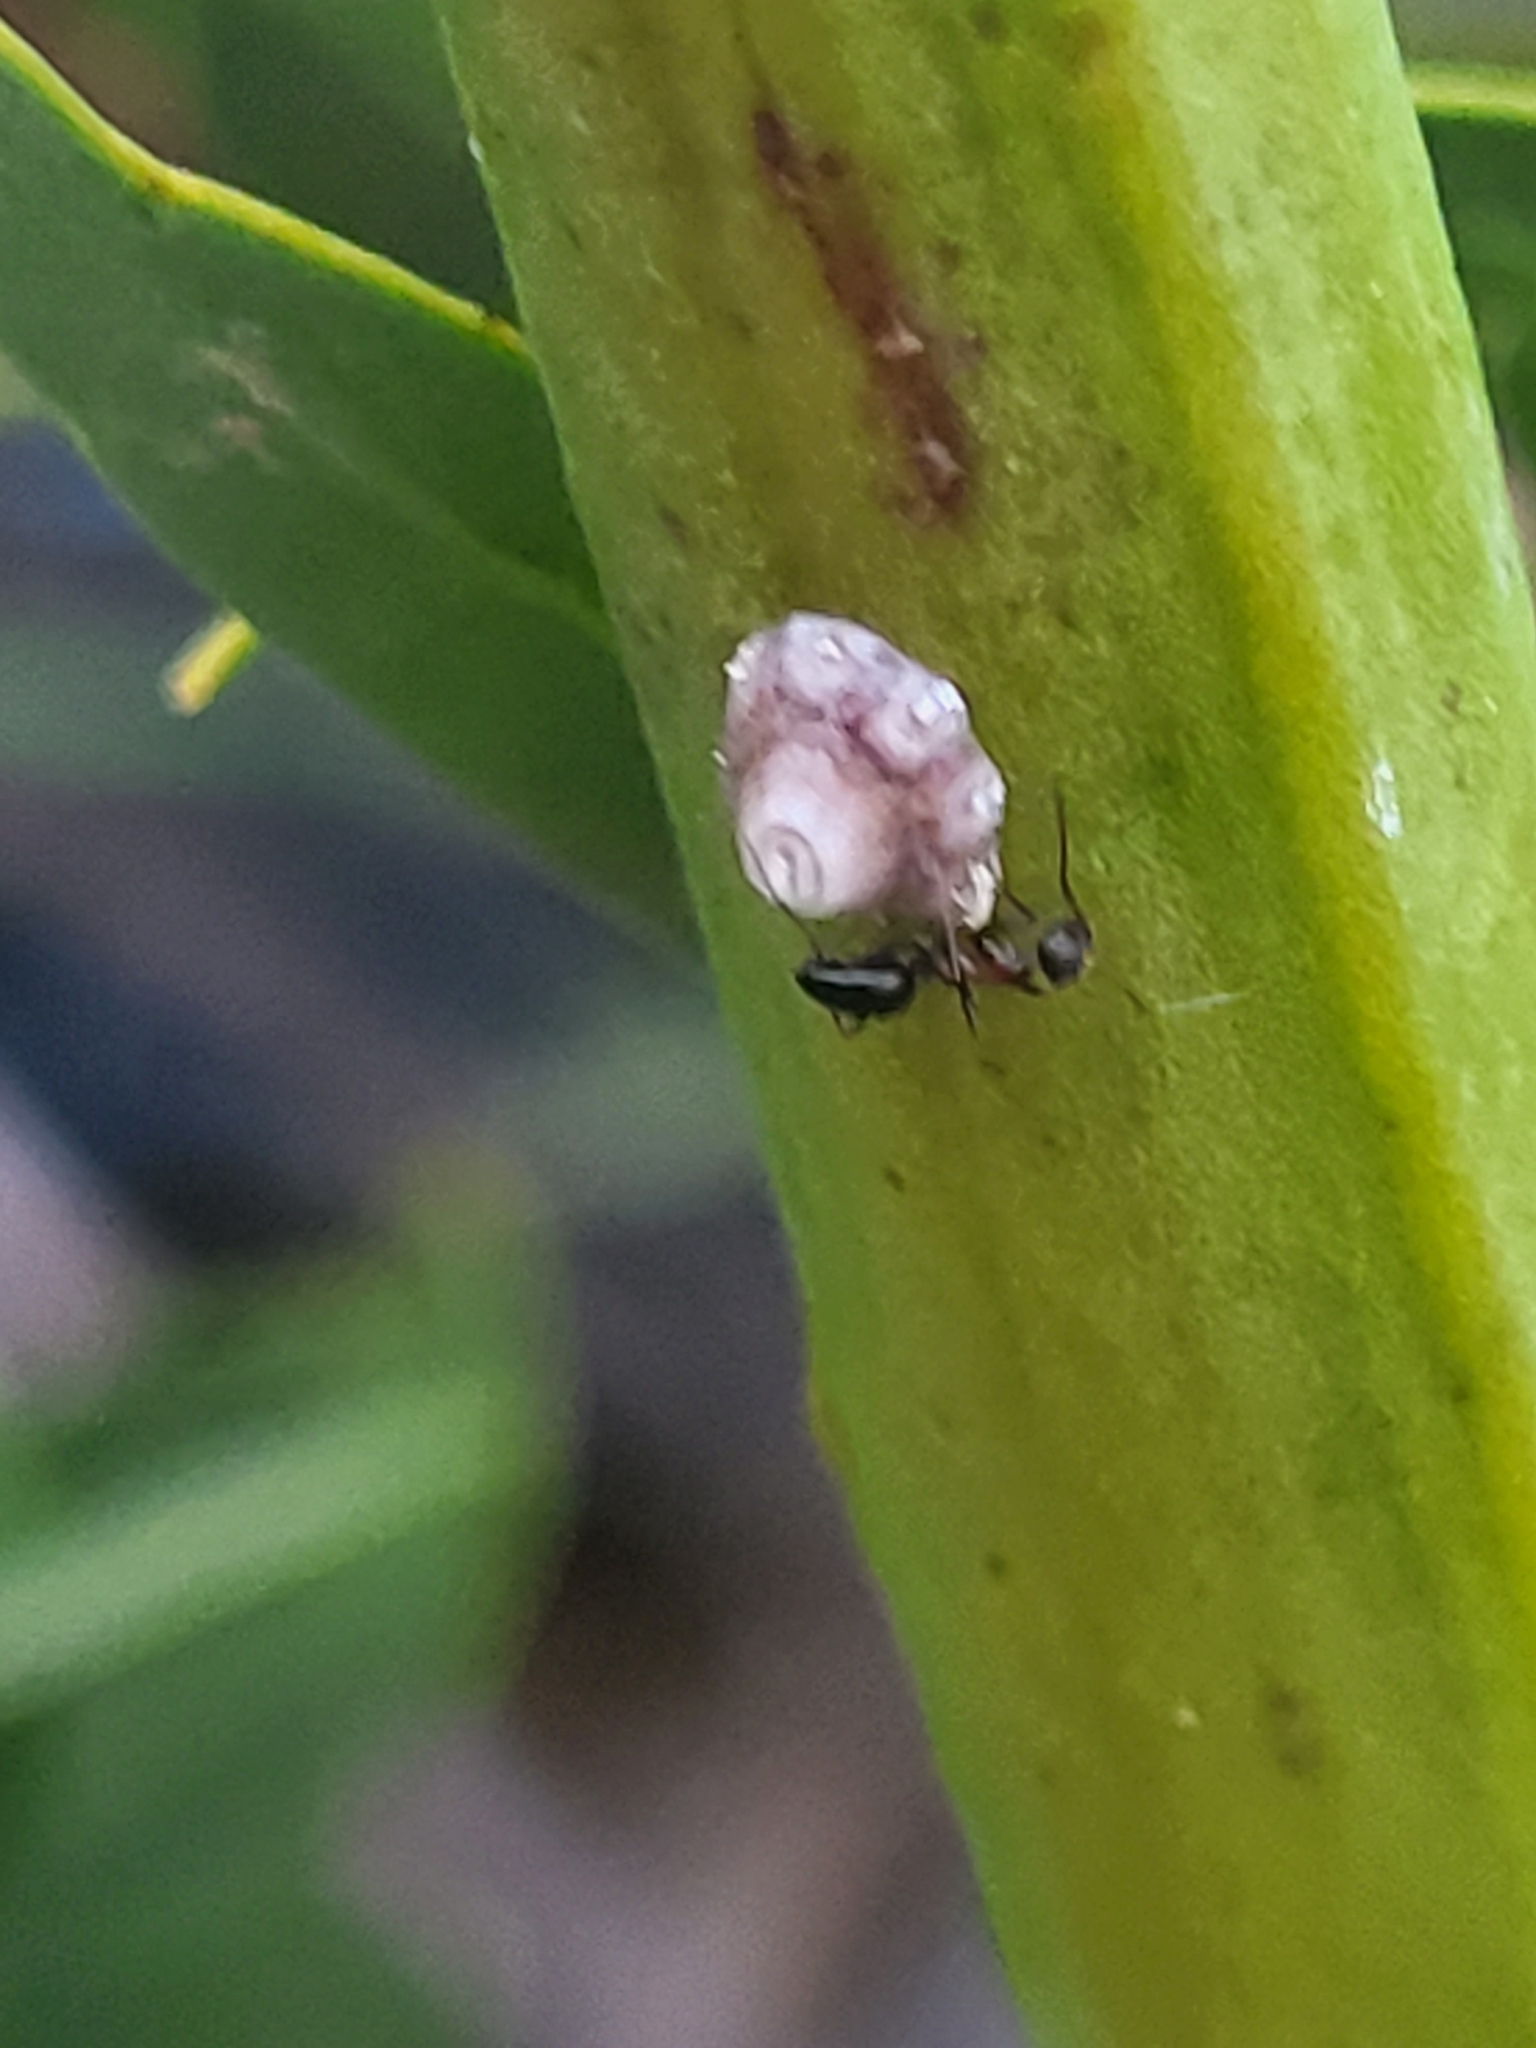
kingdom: Animalia
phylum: Arthropoda
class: Insecta
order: Hymenoptera
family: Formicidae
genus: Lepisiota
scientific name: Lepisiota frauenfeldi
